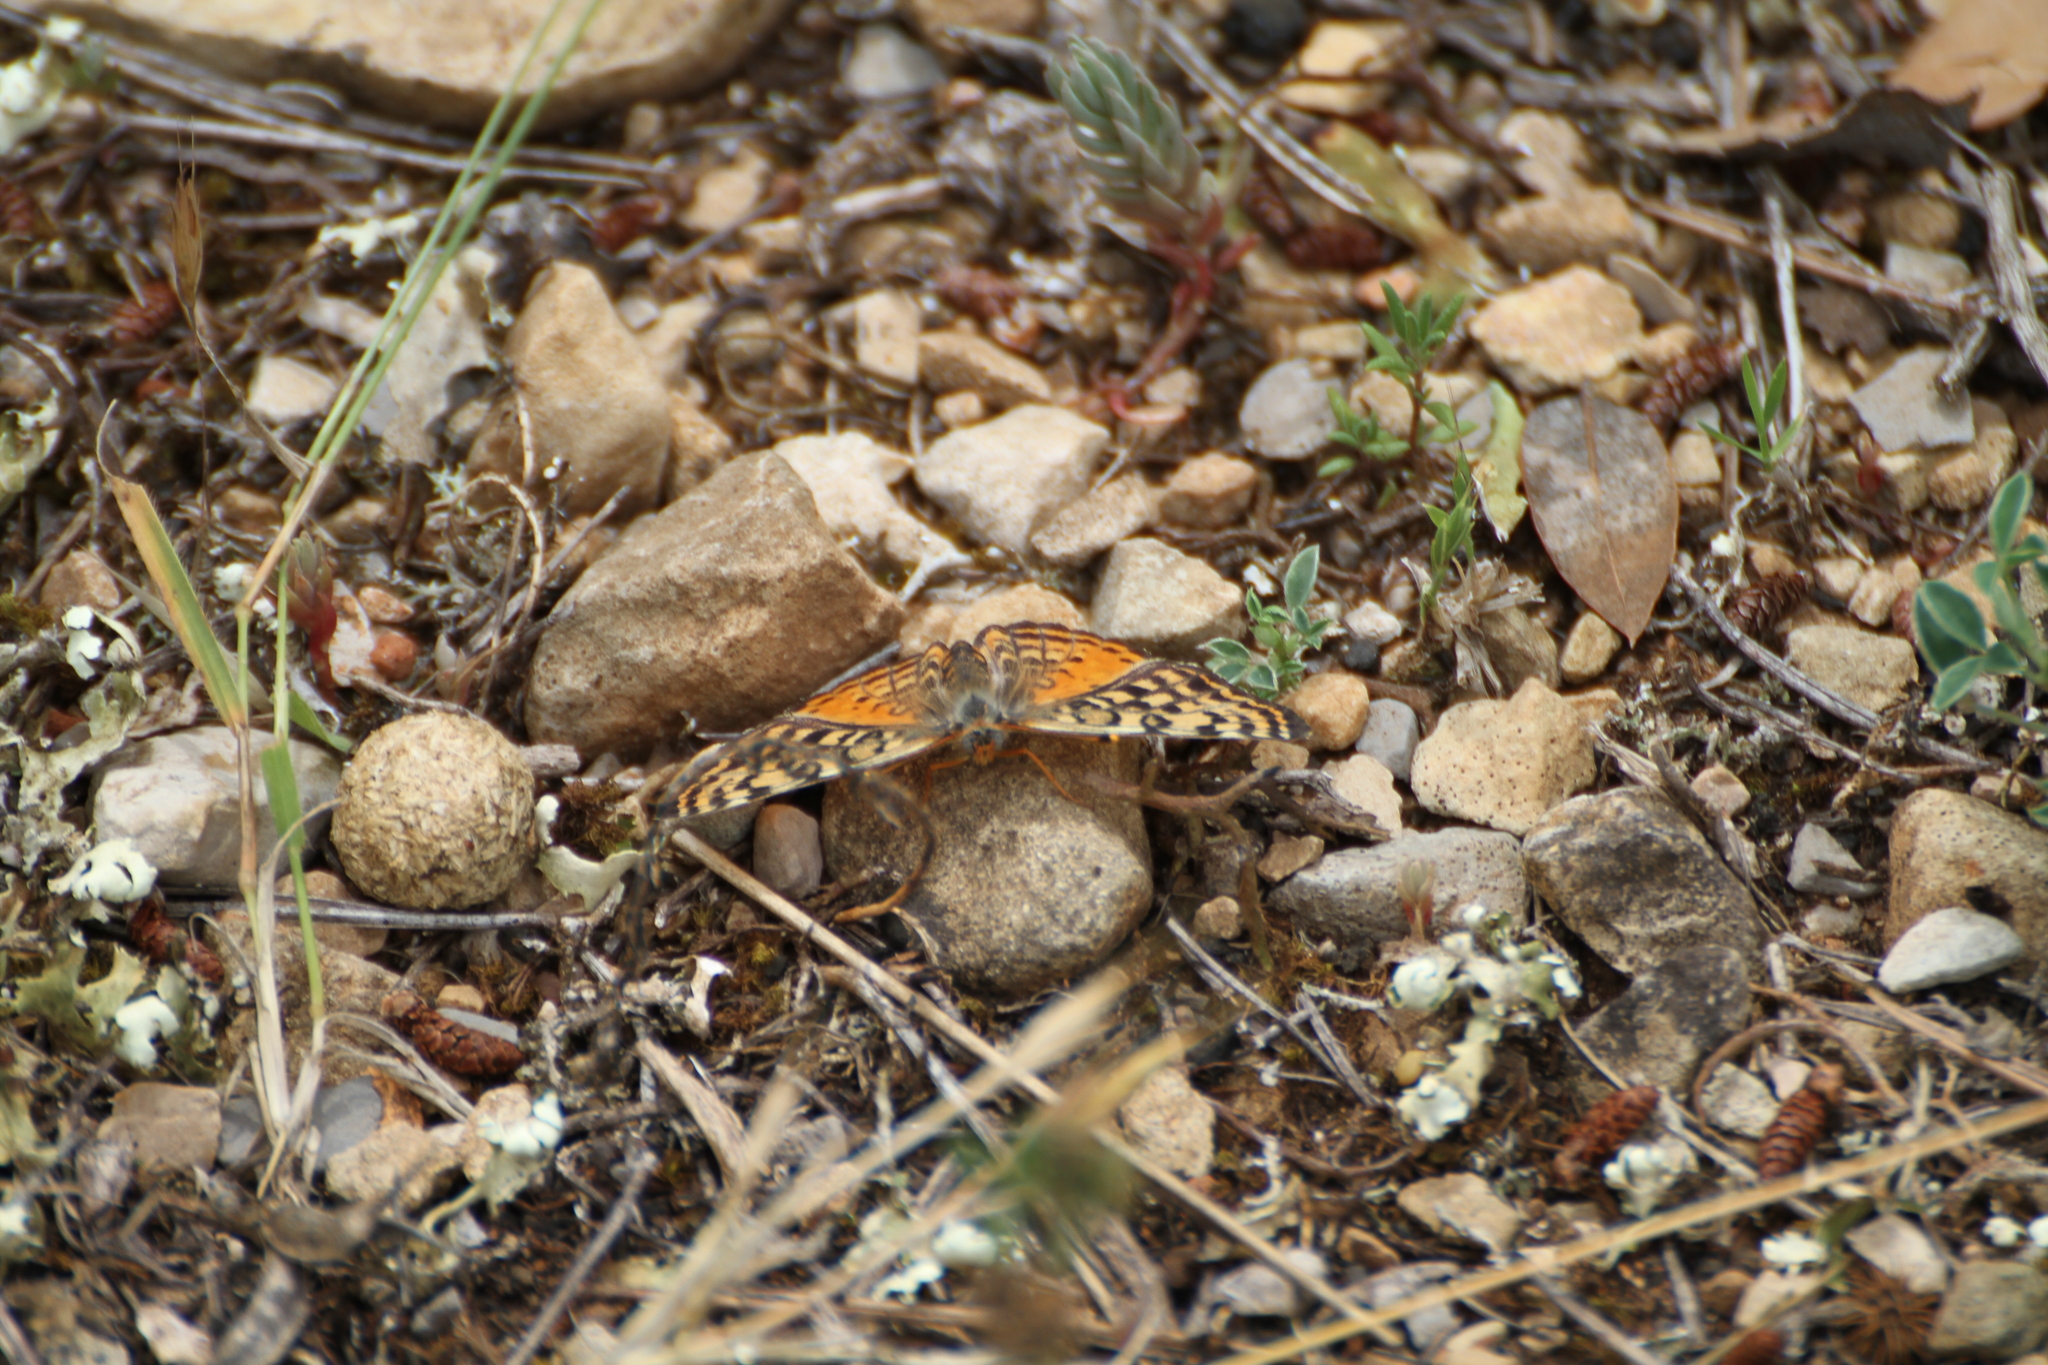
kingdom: Animalia
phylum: Arthropoda
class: Insecta
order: Lepidoptera
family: Nymphalidae
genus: Melitaea
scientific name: Melitaea didyma
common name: Spotted fritillary
